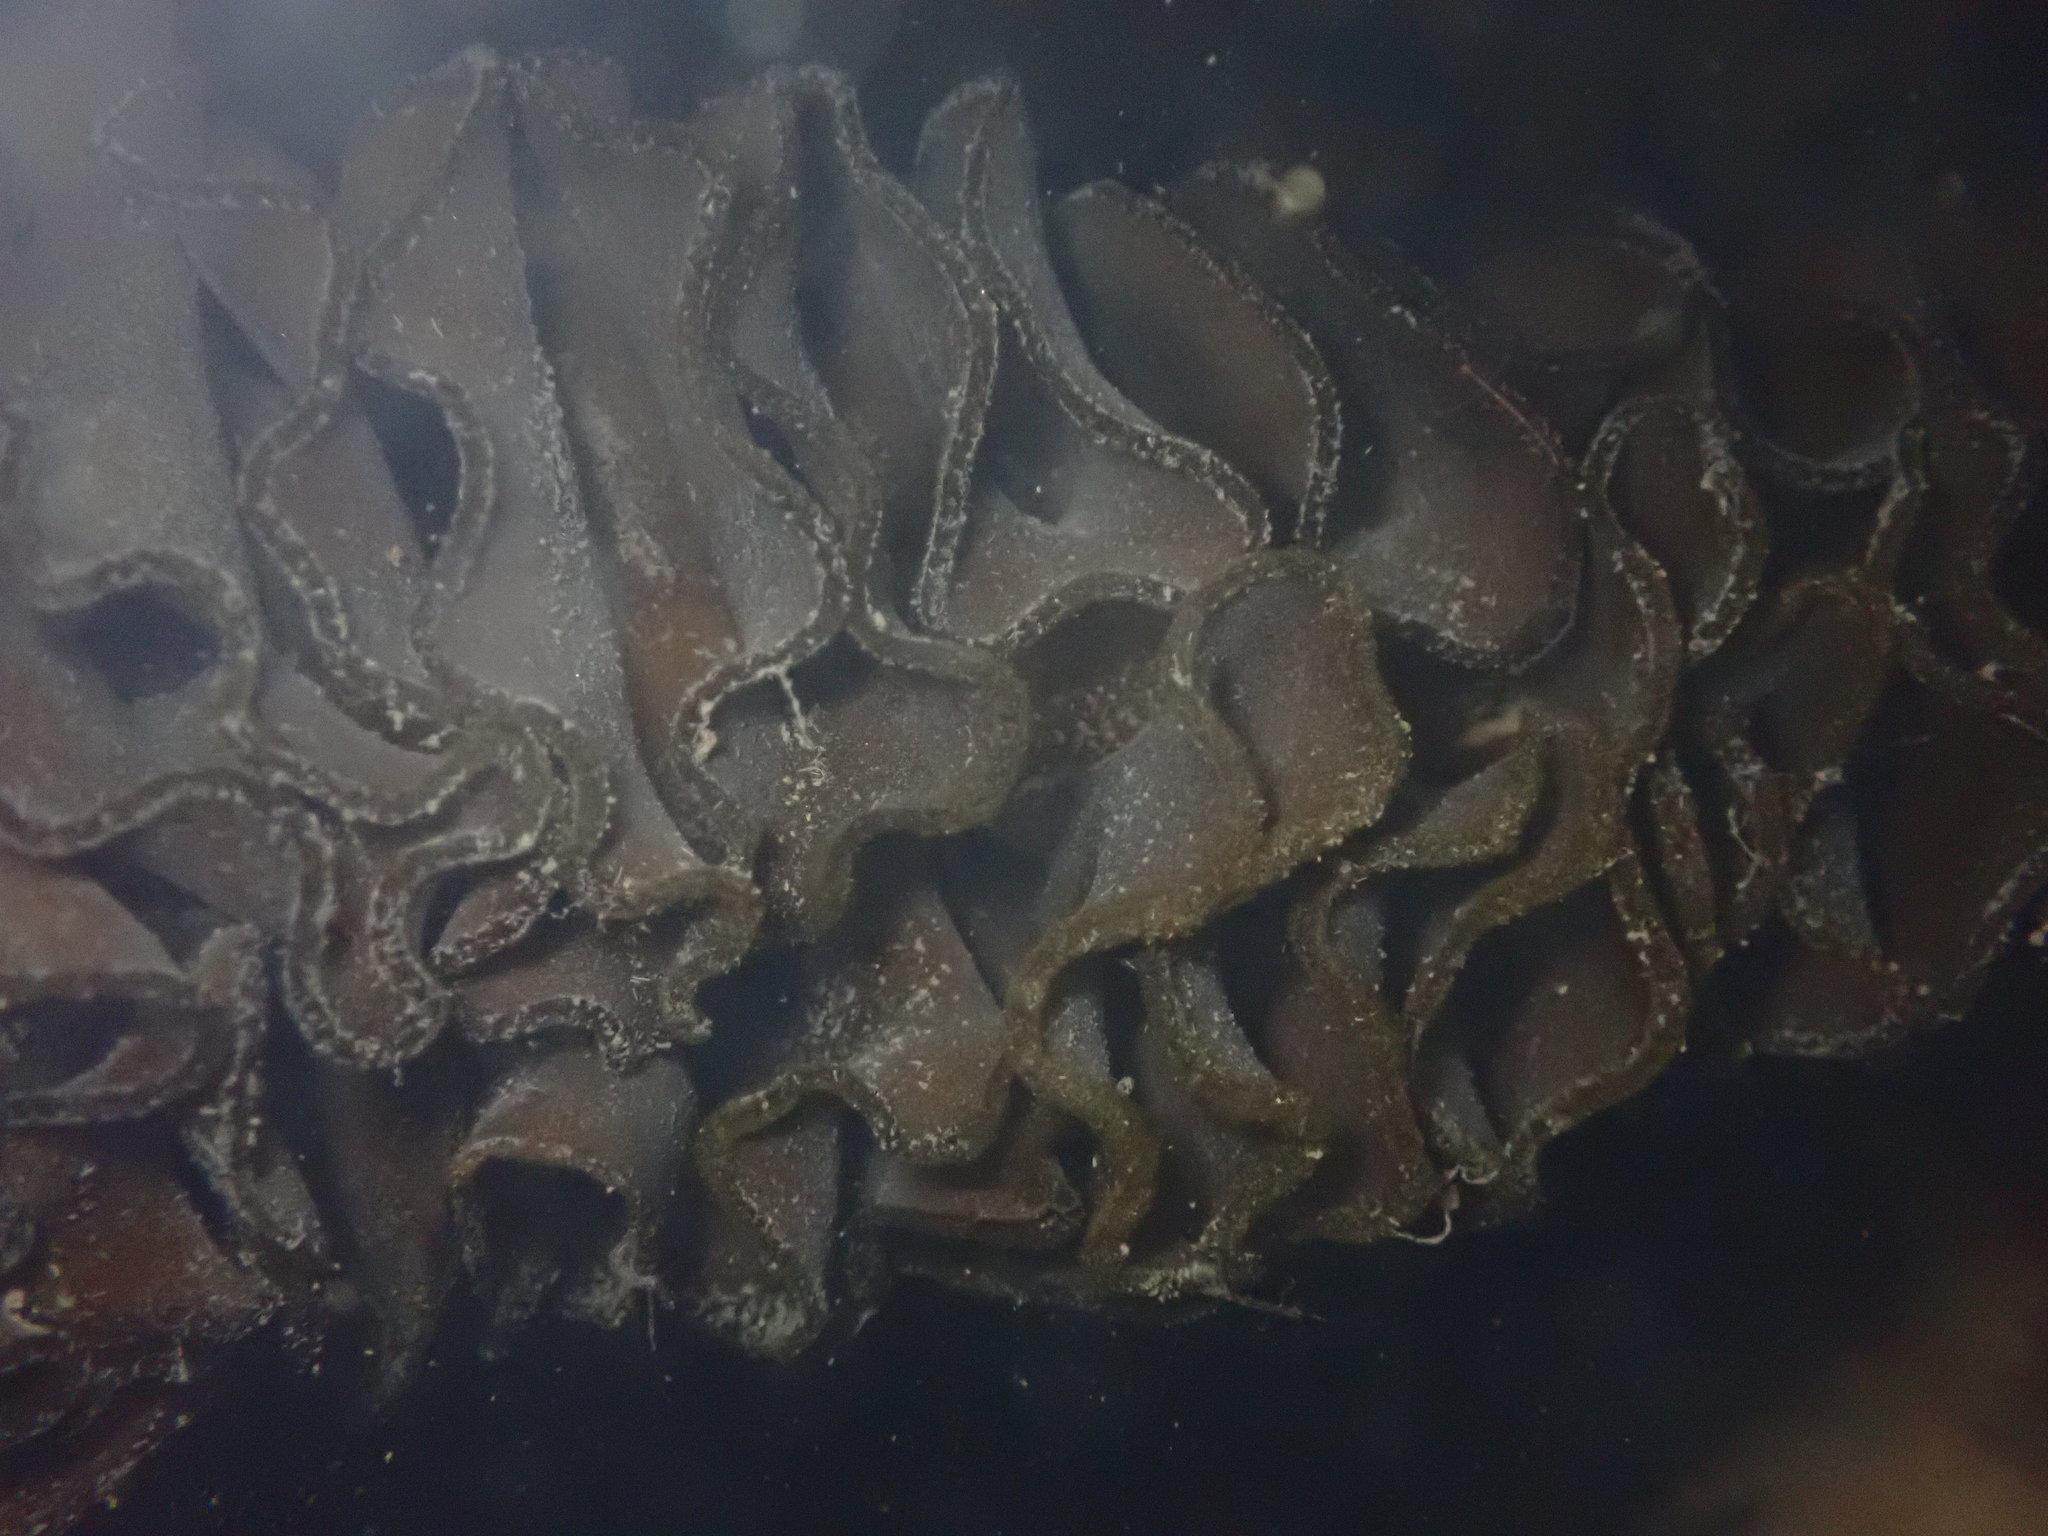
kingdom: Chromista
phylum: Ochrophyta
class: Phaeophyceae
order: Laminariales
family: Alariaceae
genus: Undaria
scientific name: Undaria pinnatifida
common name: Asian kelp
